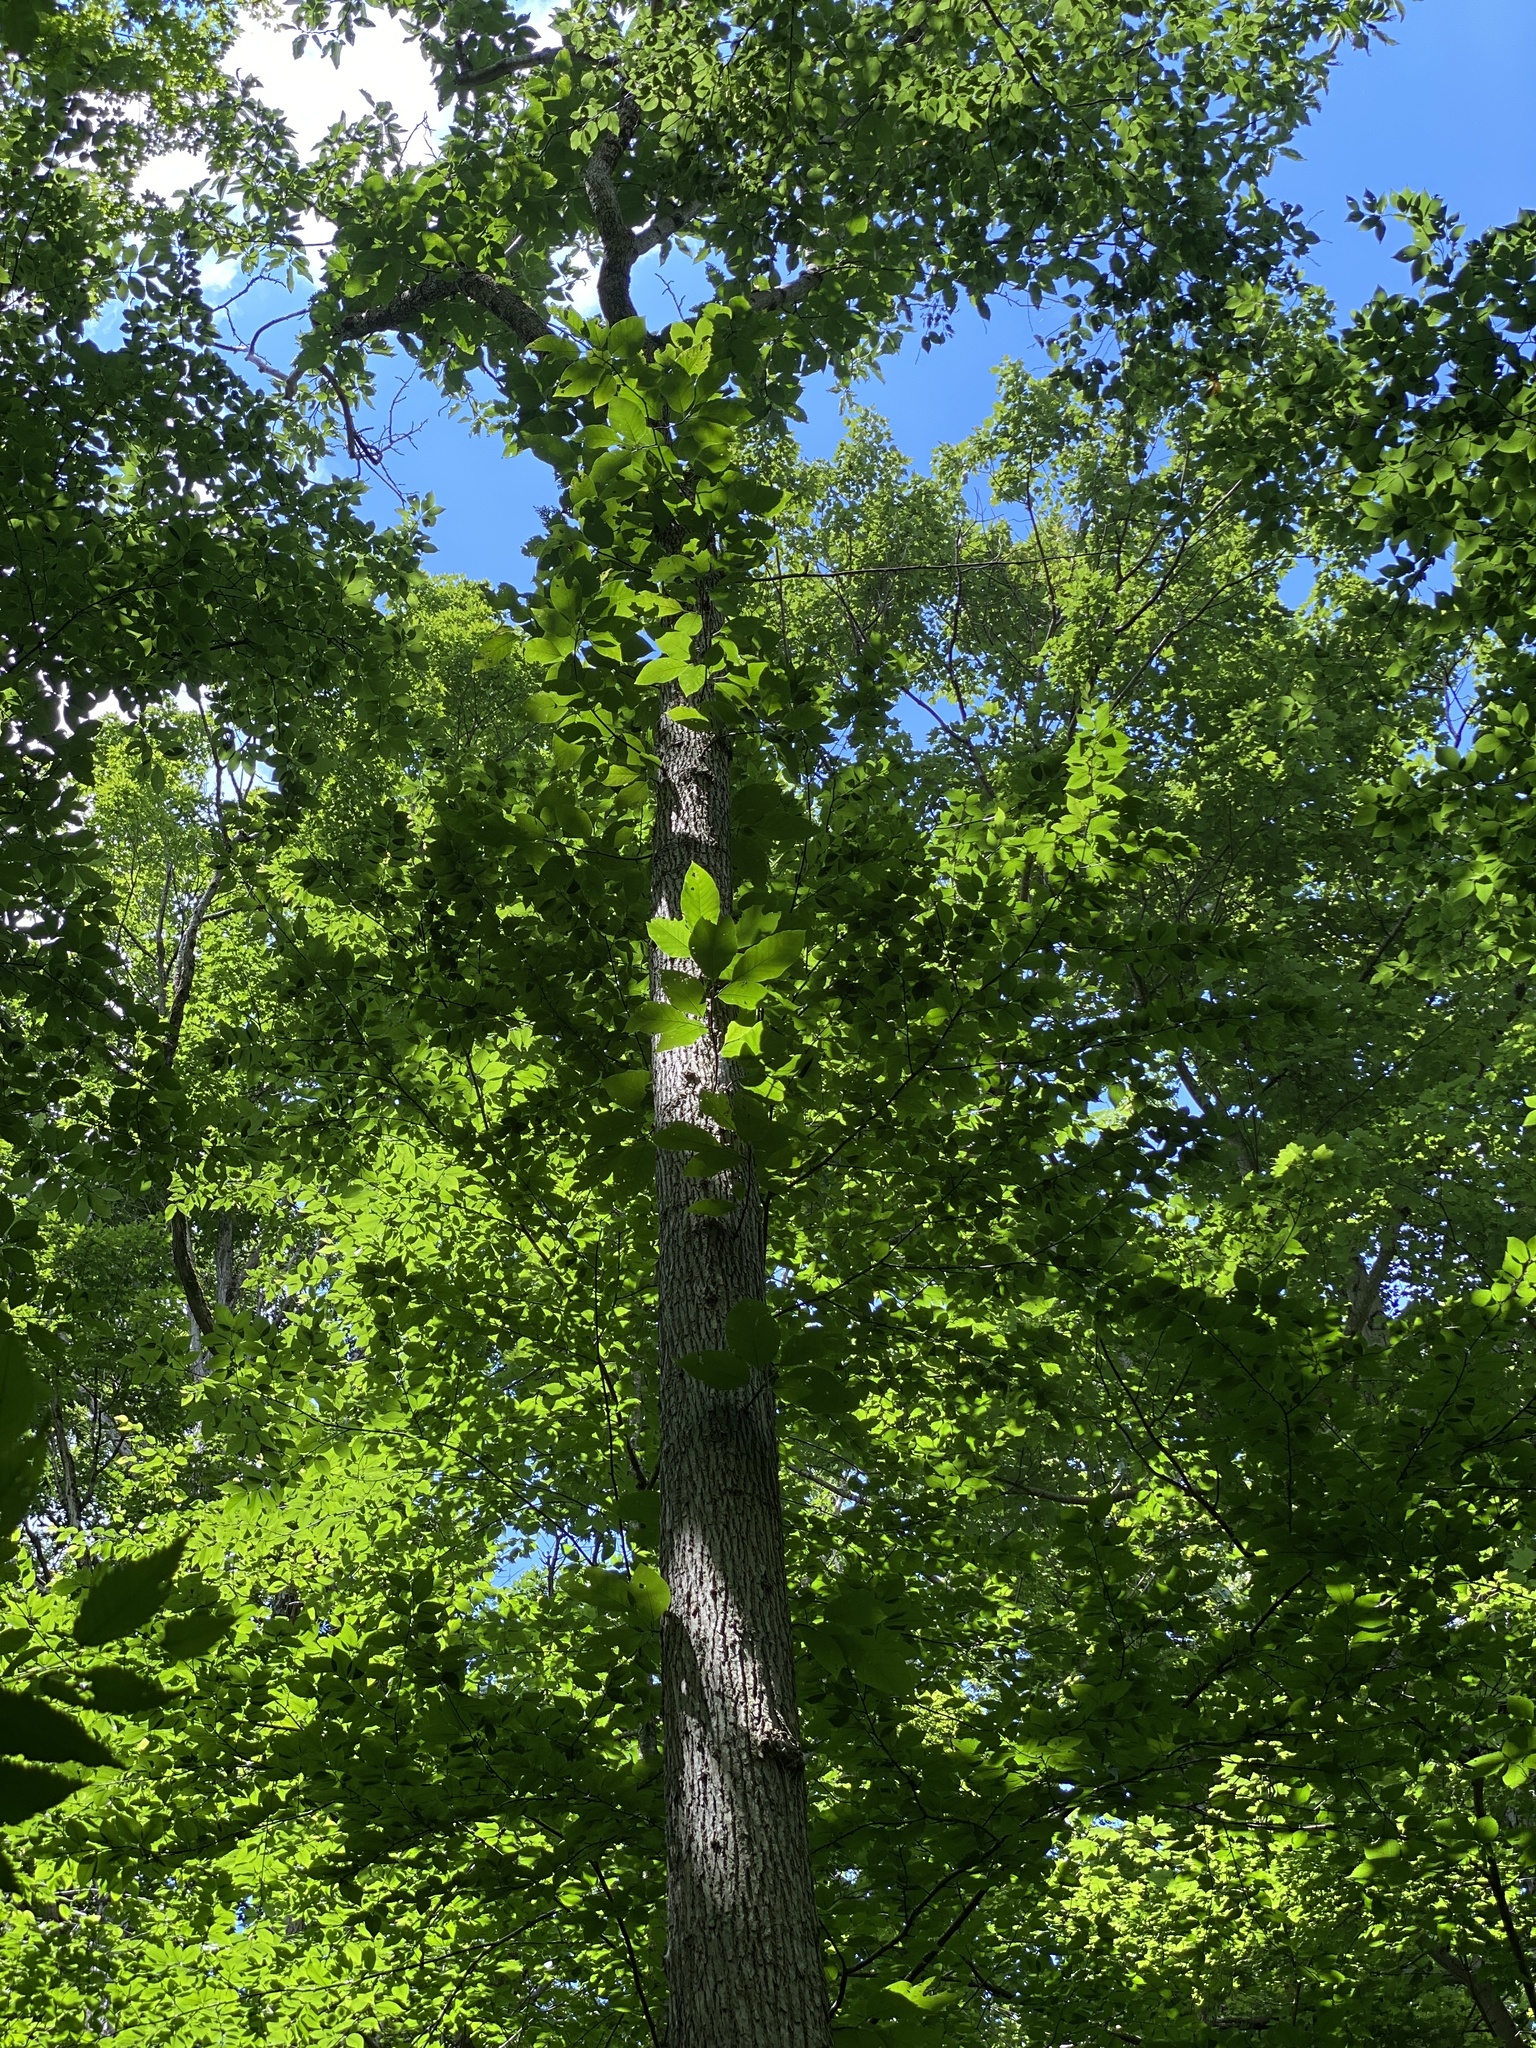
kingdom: Plantae
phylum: Tracheophyta
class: Magnoliopsida
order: Magnoliales
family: Magnoliaceae
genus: Magnolia
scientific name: Magnolia acuminata
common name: Cucumber magnolia
